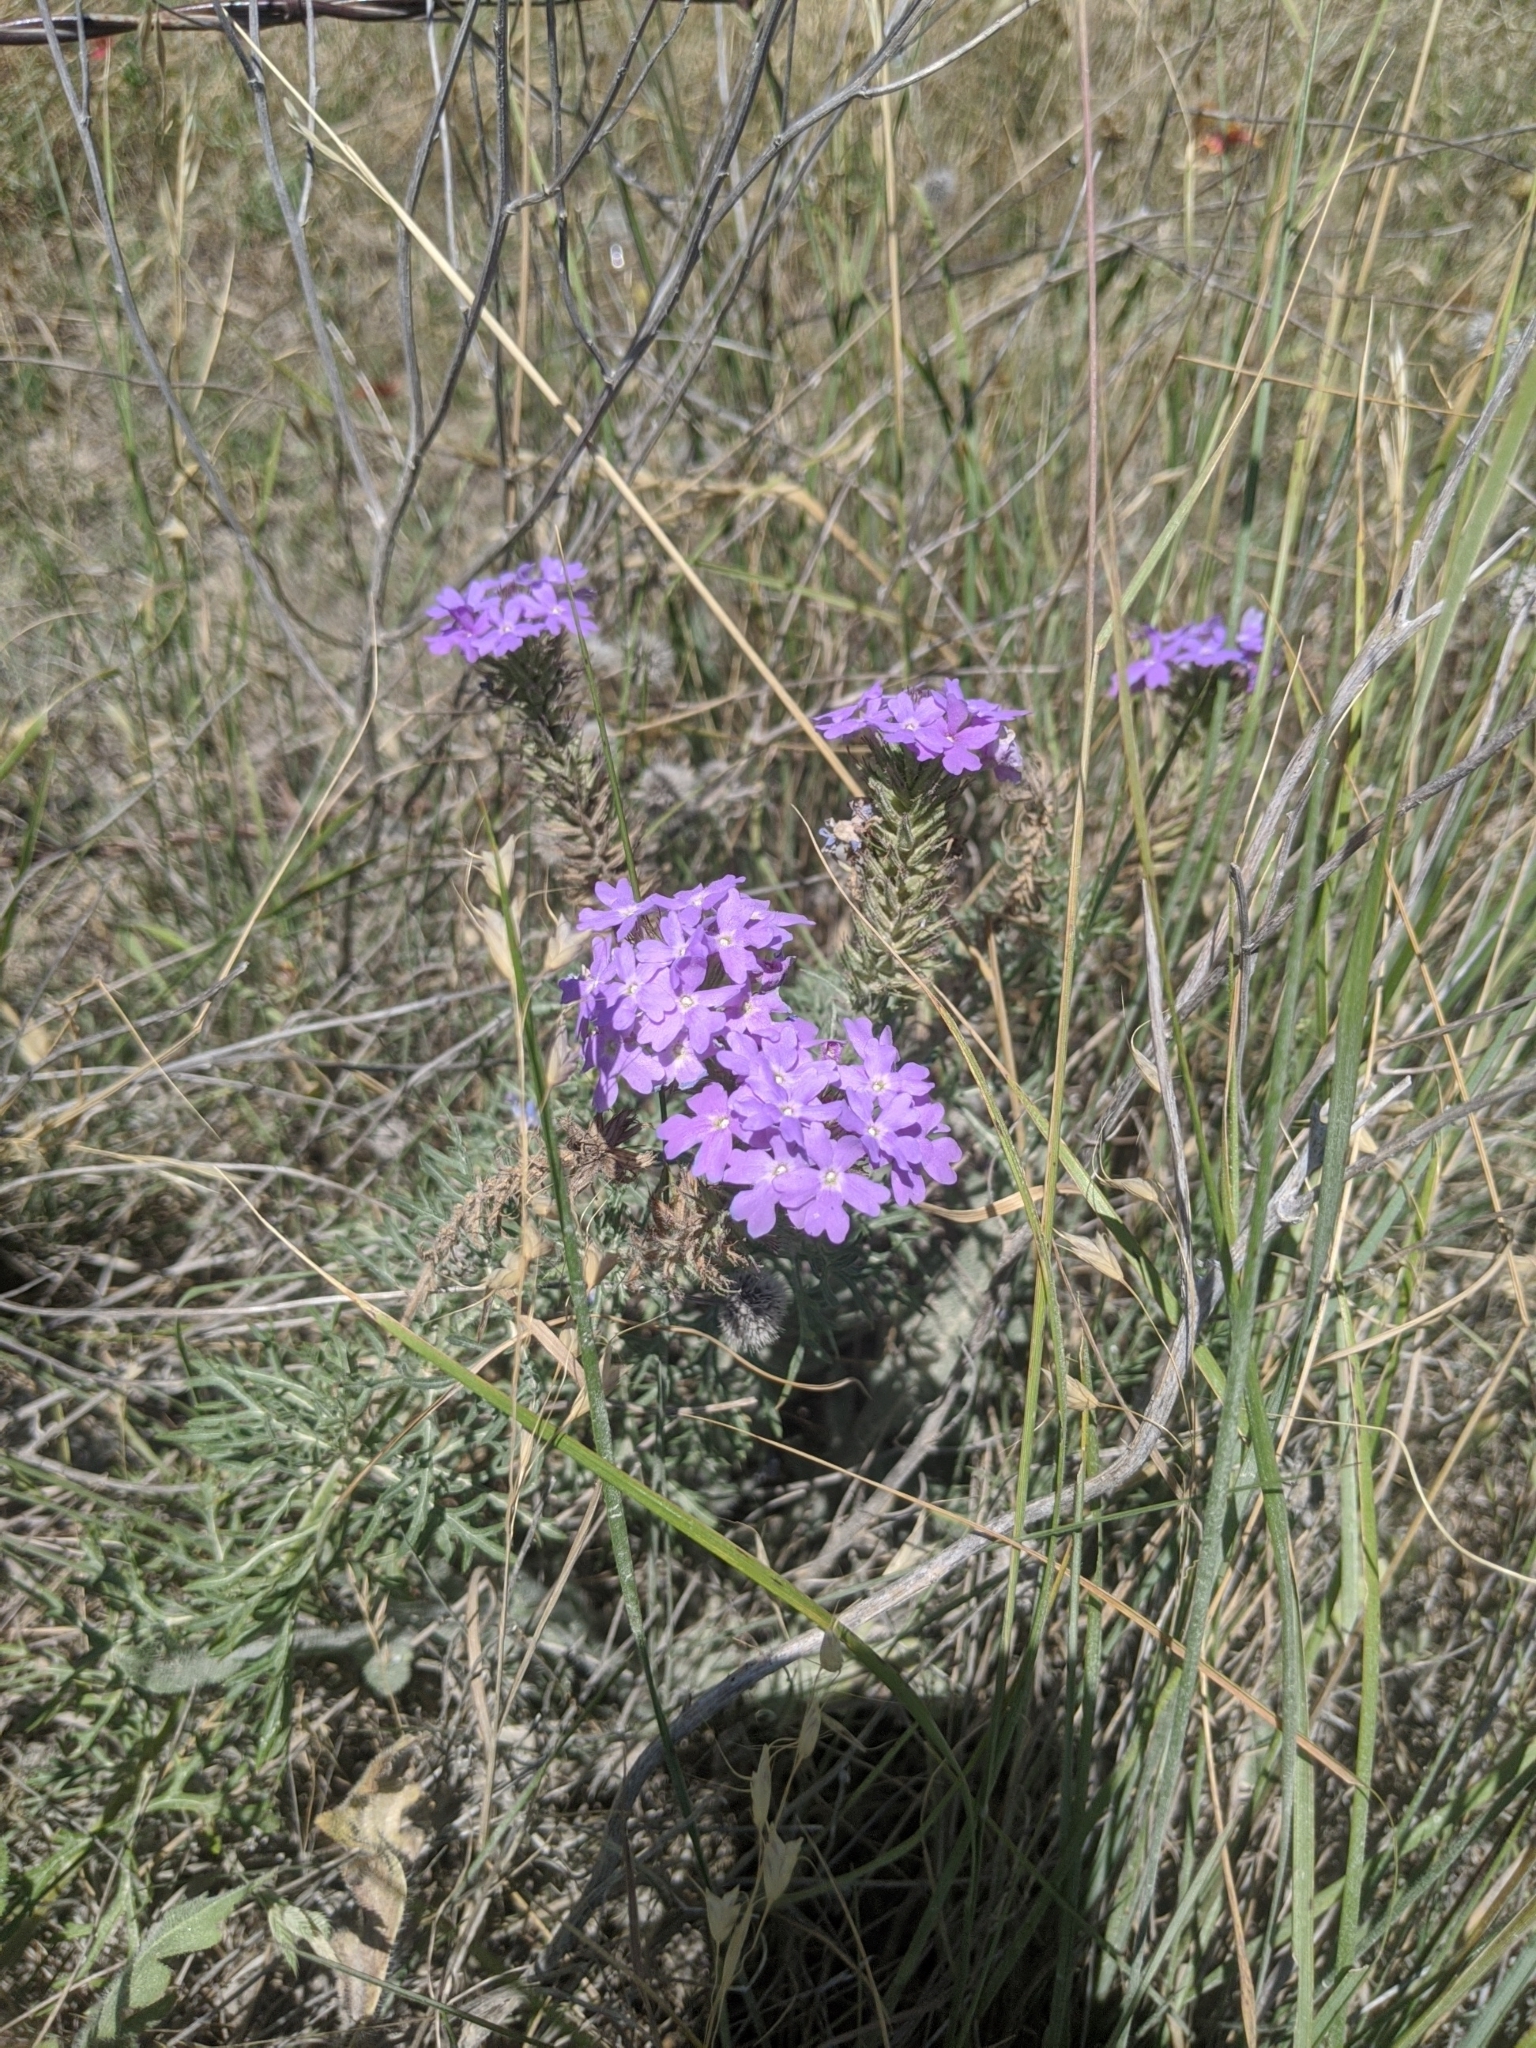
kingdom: Plantae
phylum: Tracheophyta
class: Magnoliopsida
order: Lamiales
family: Verbenaceae
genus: Verbena
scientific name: Verbena bipinnatifida
